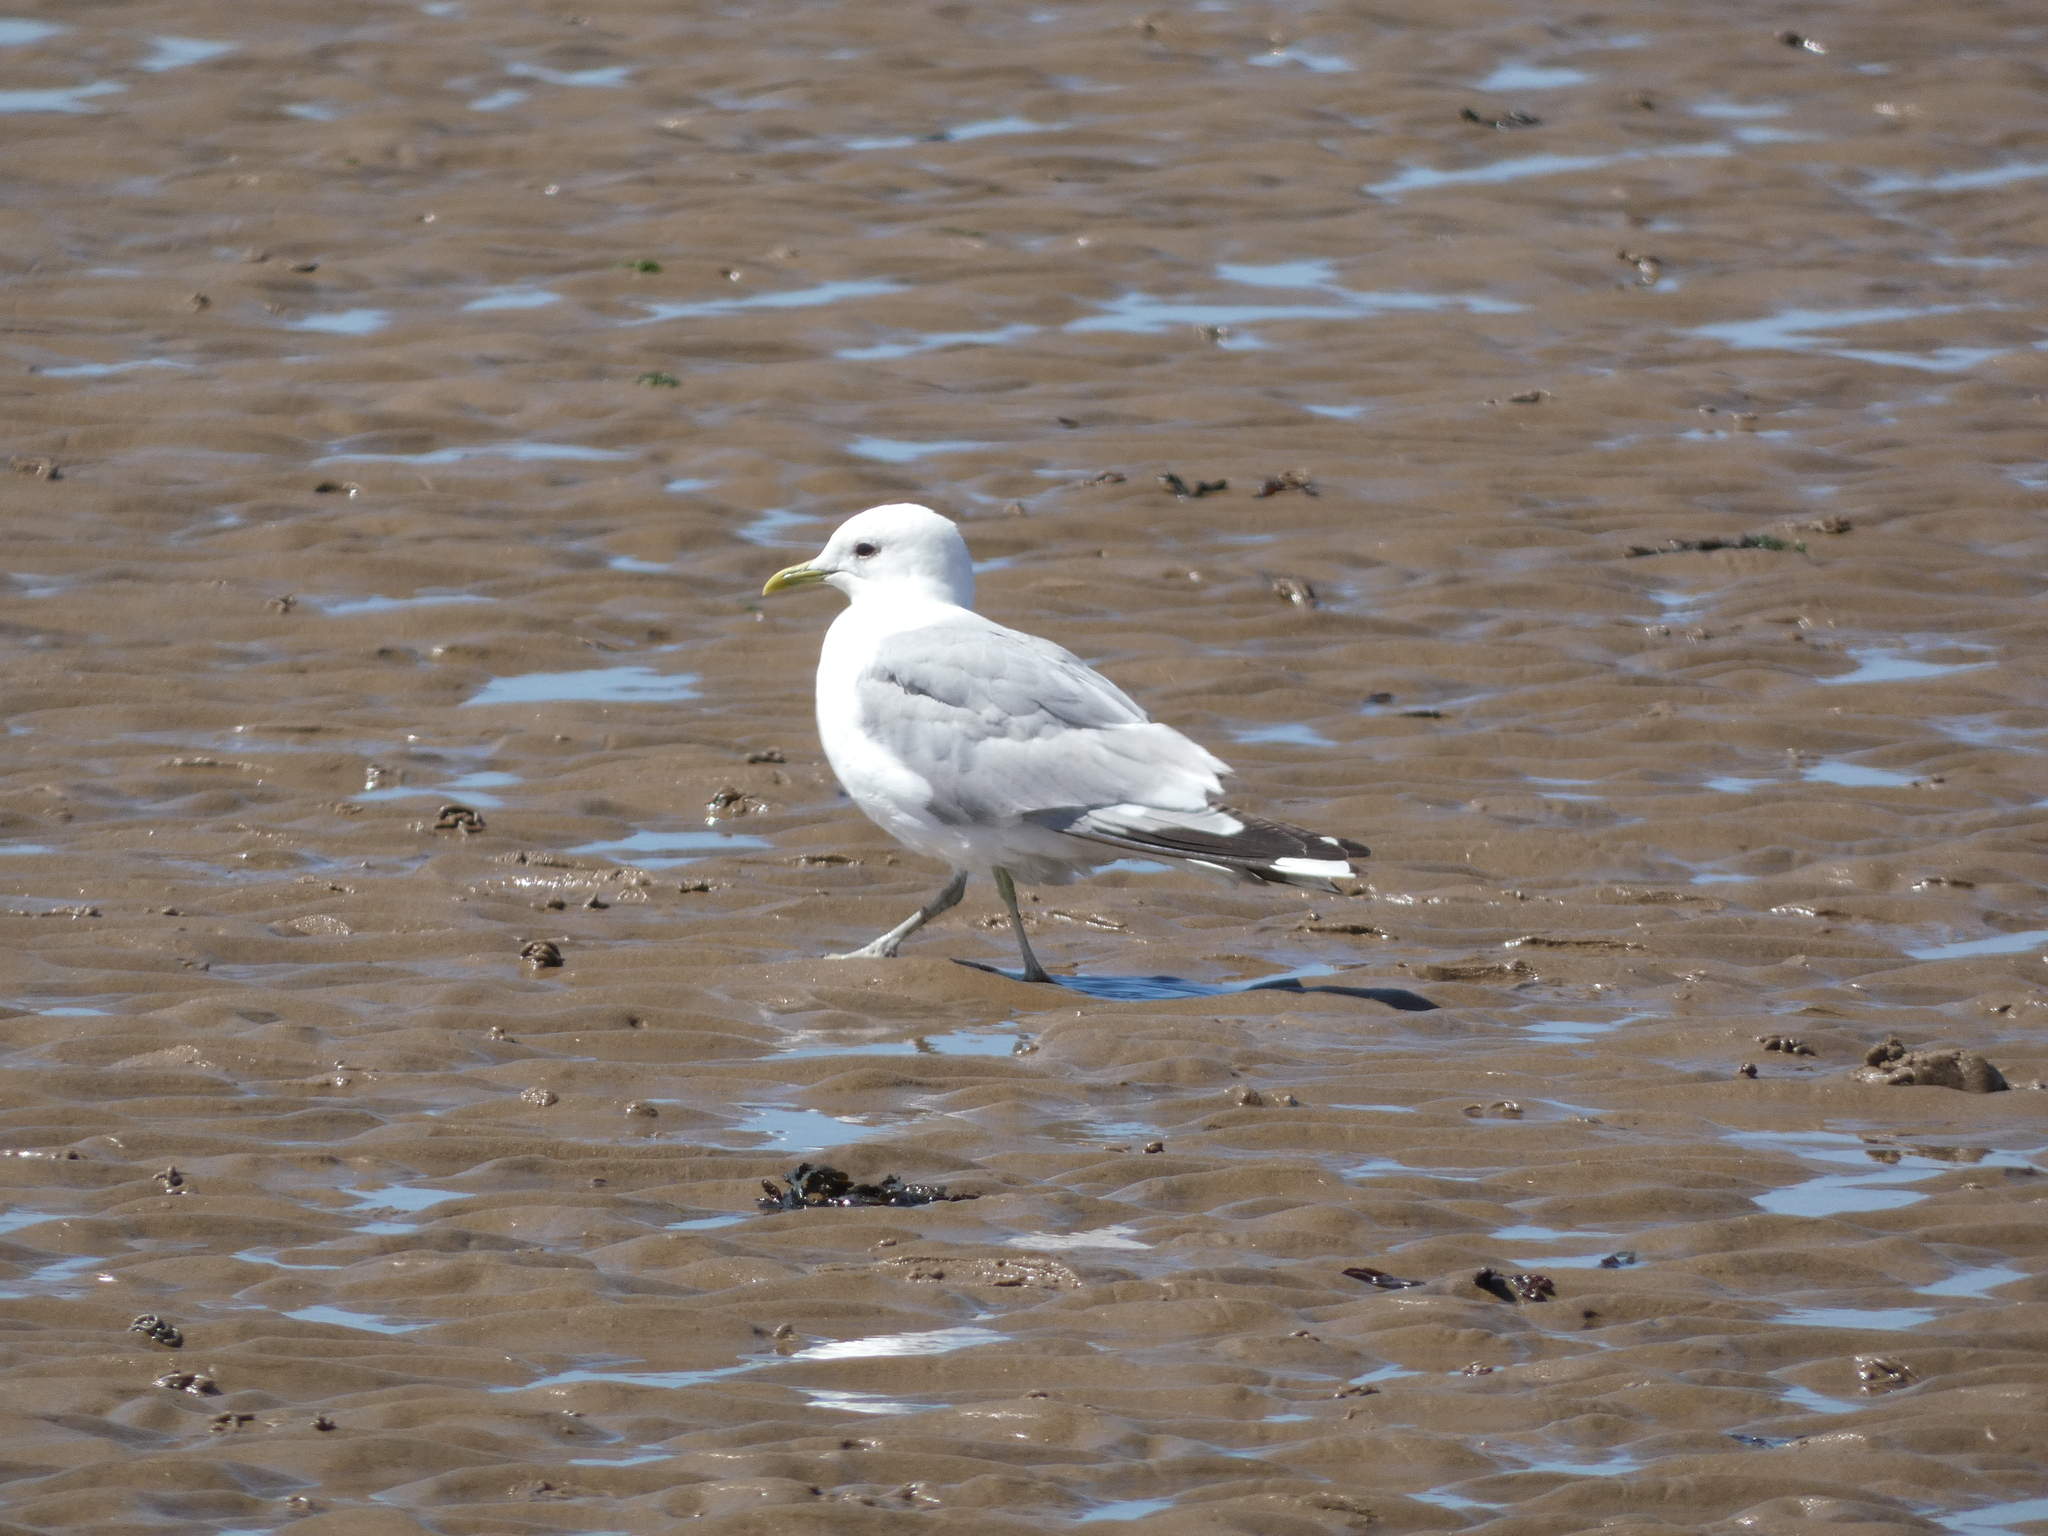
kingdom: Animalia
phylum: Chordata
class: Aves
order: Charadriiformes
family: Laridae
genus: Larus
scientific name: Larus canus
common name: Mew gull
